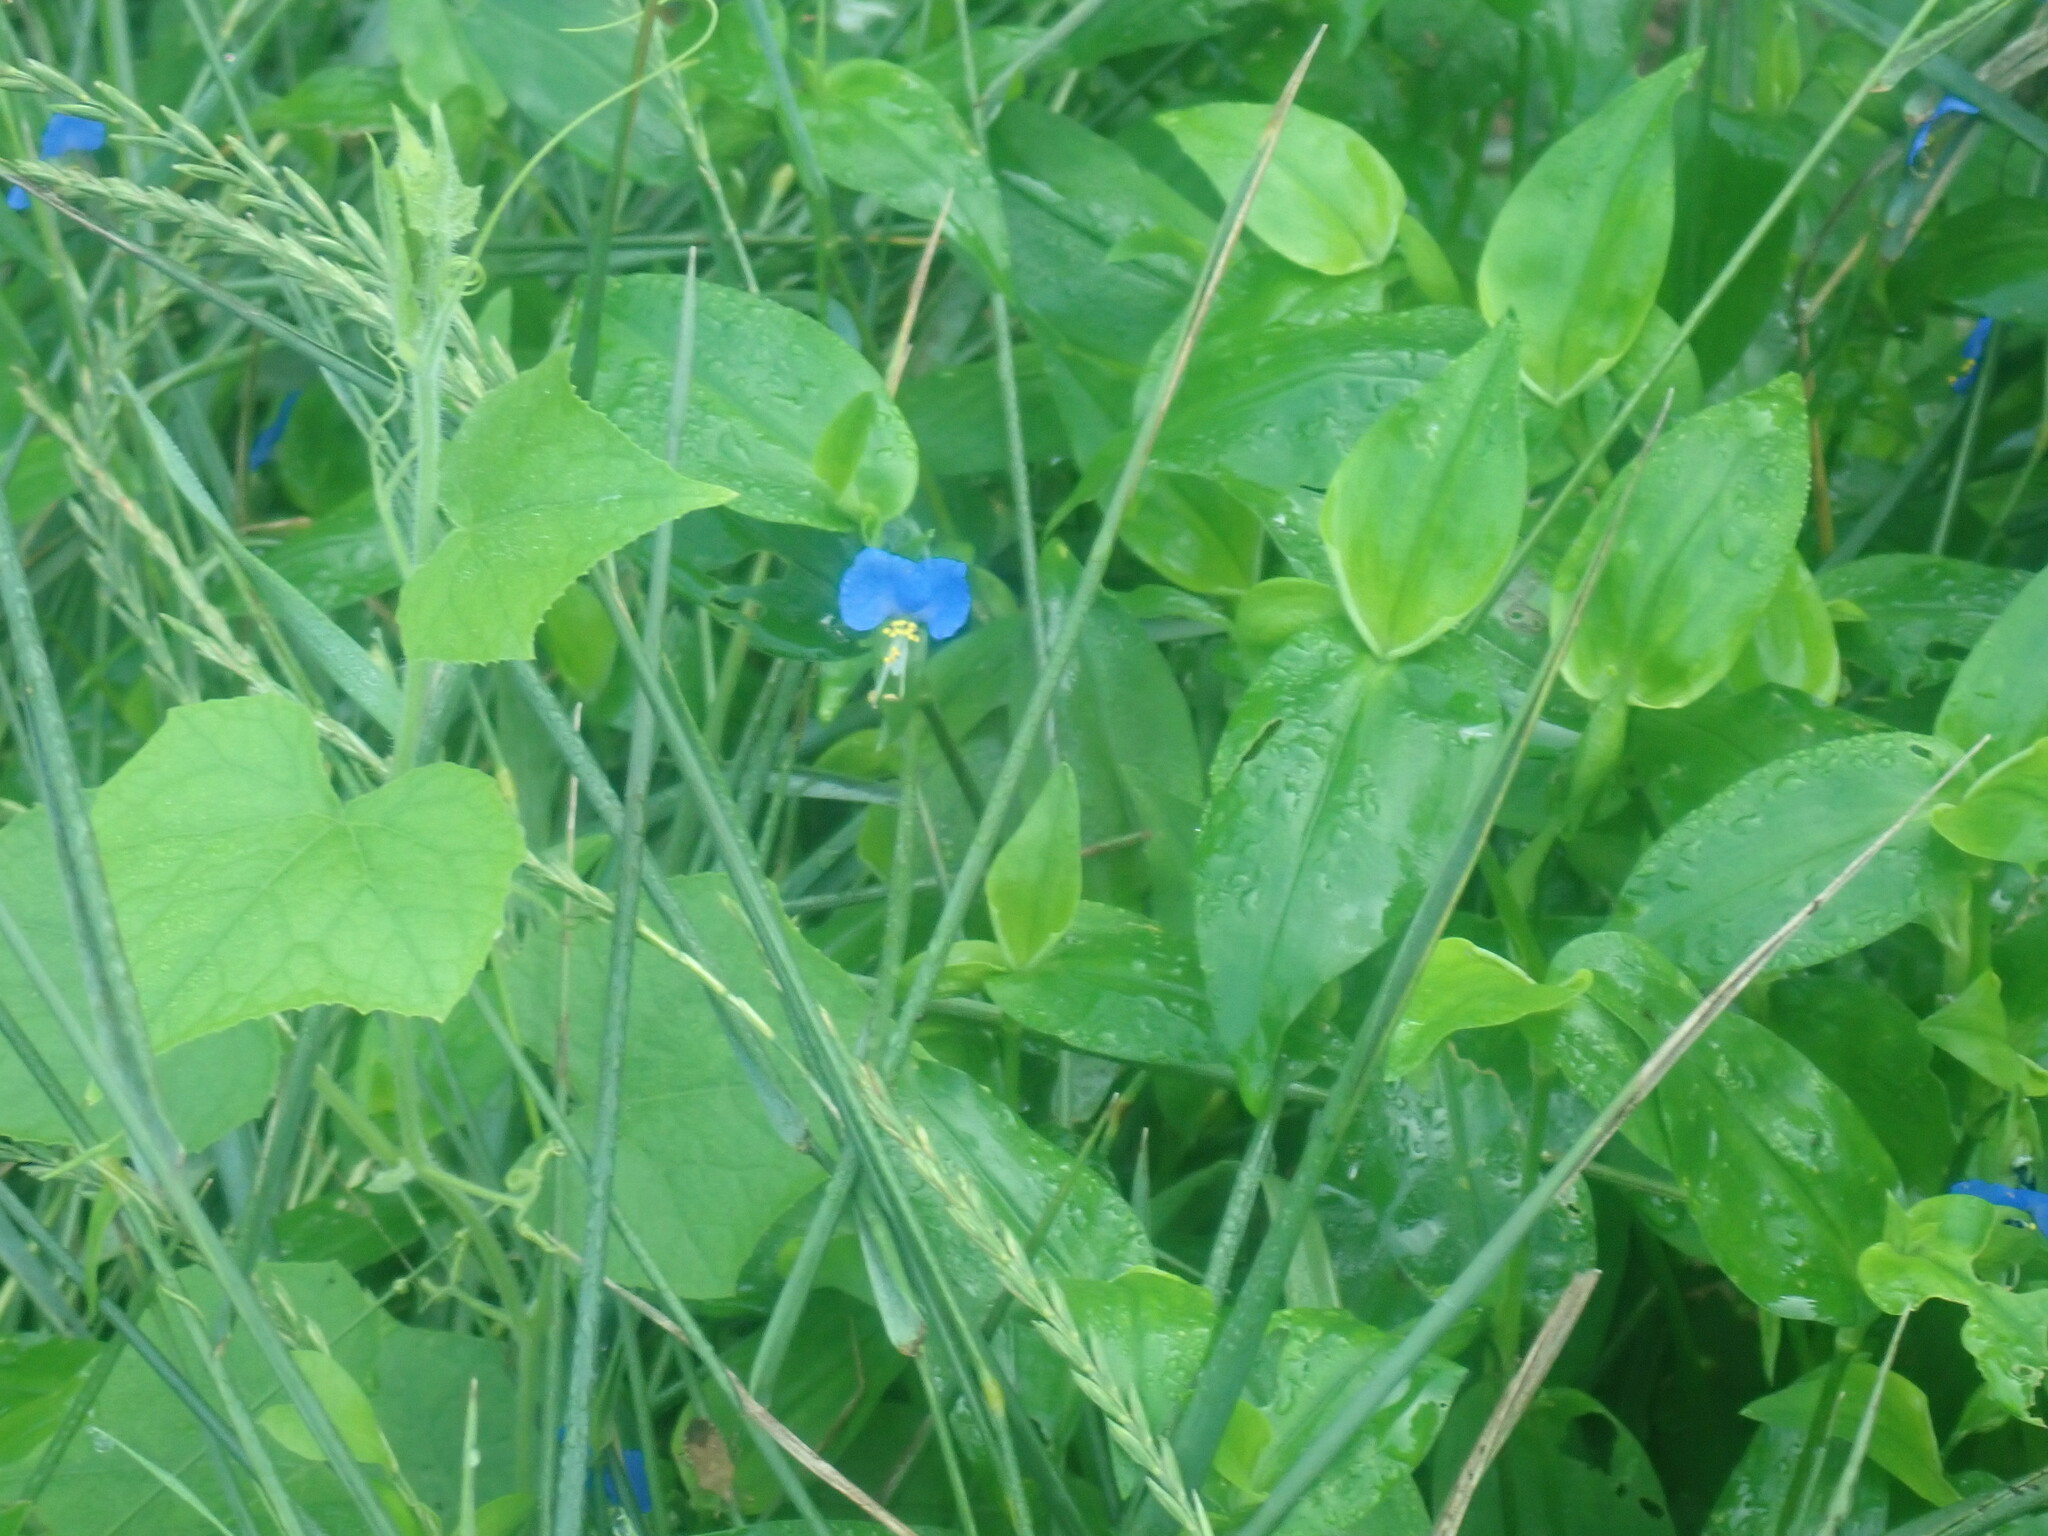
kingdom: Plantae
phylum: Tracheophyta
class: Liliopsida
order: Commelinales
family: Commelinaceae
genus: Commelina
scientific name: Commelina communis
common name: Asiatic dayflower
